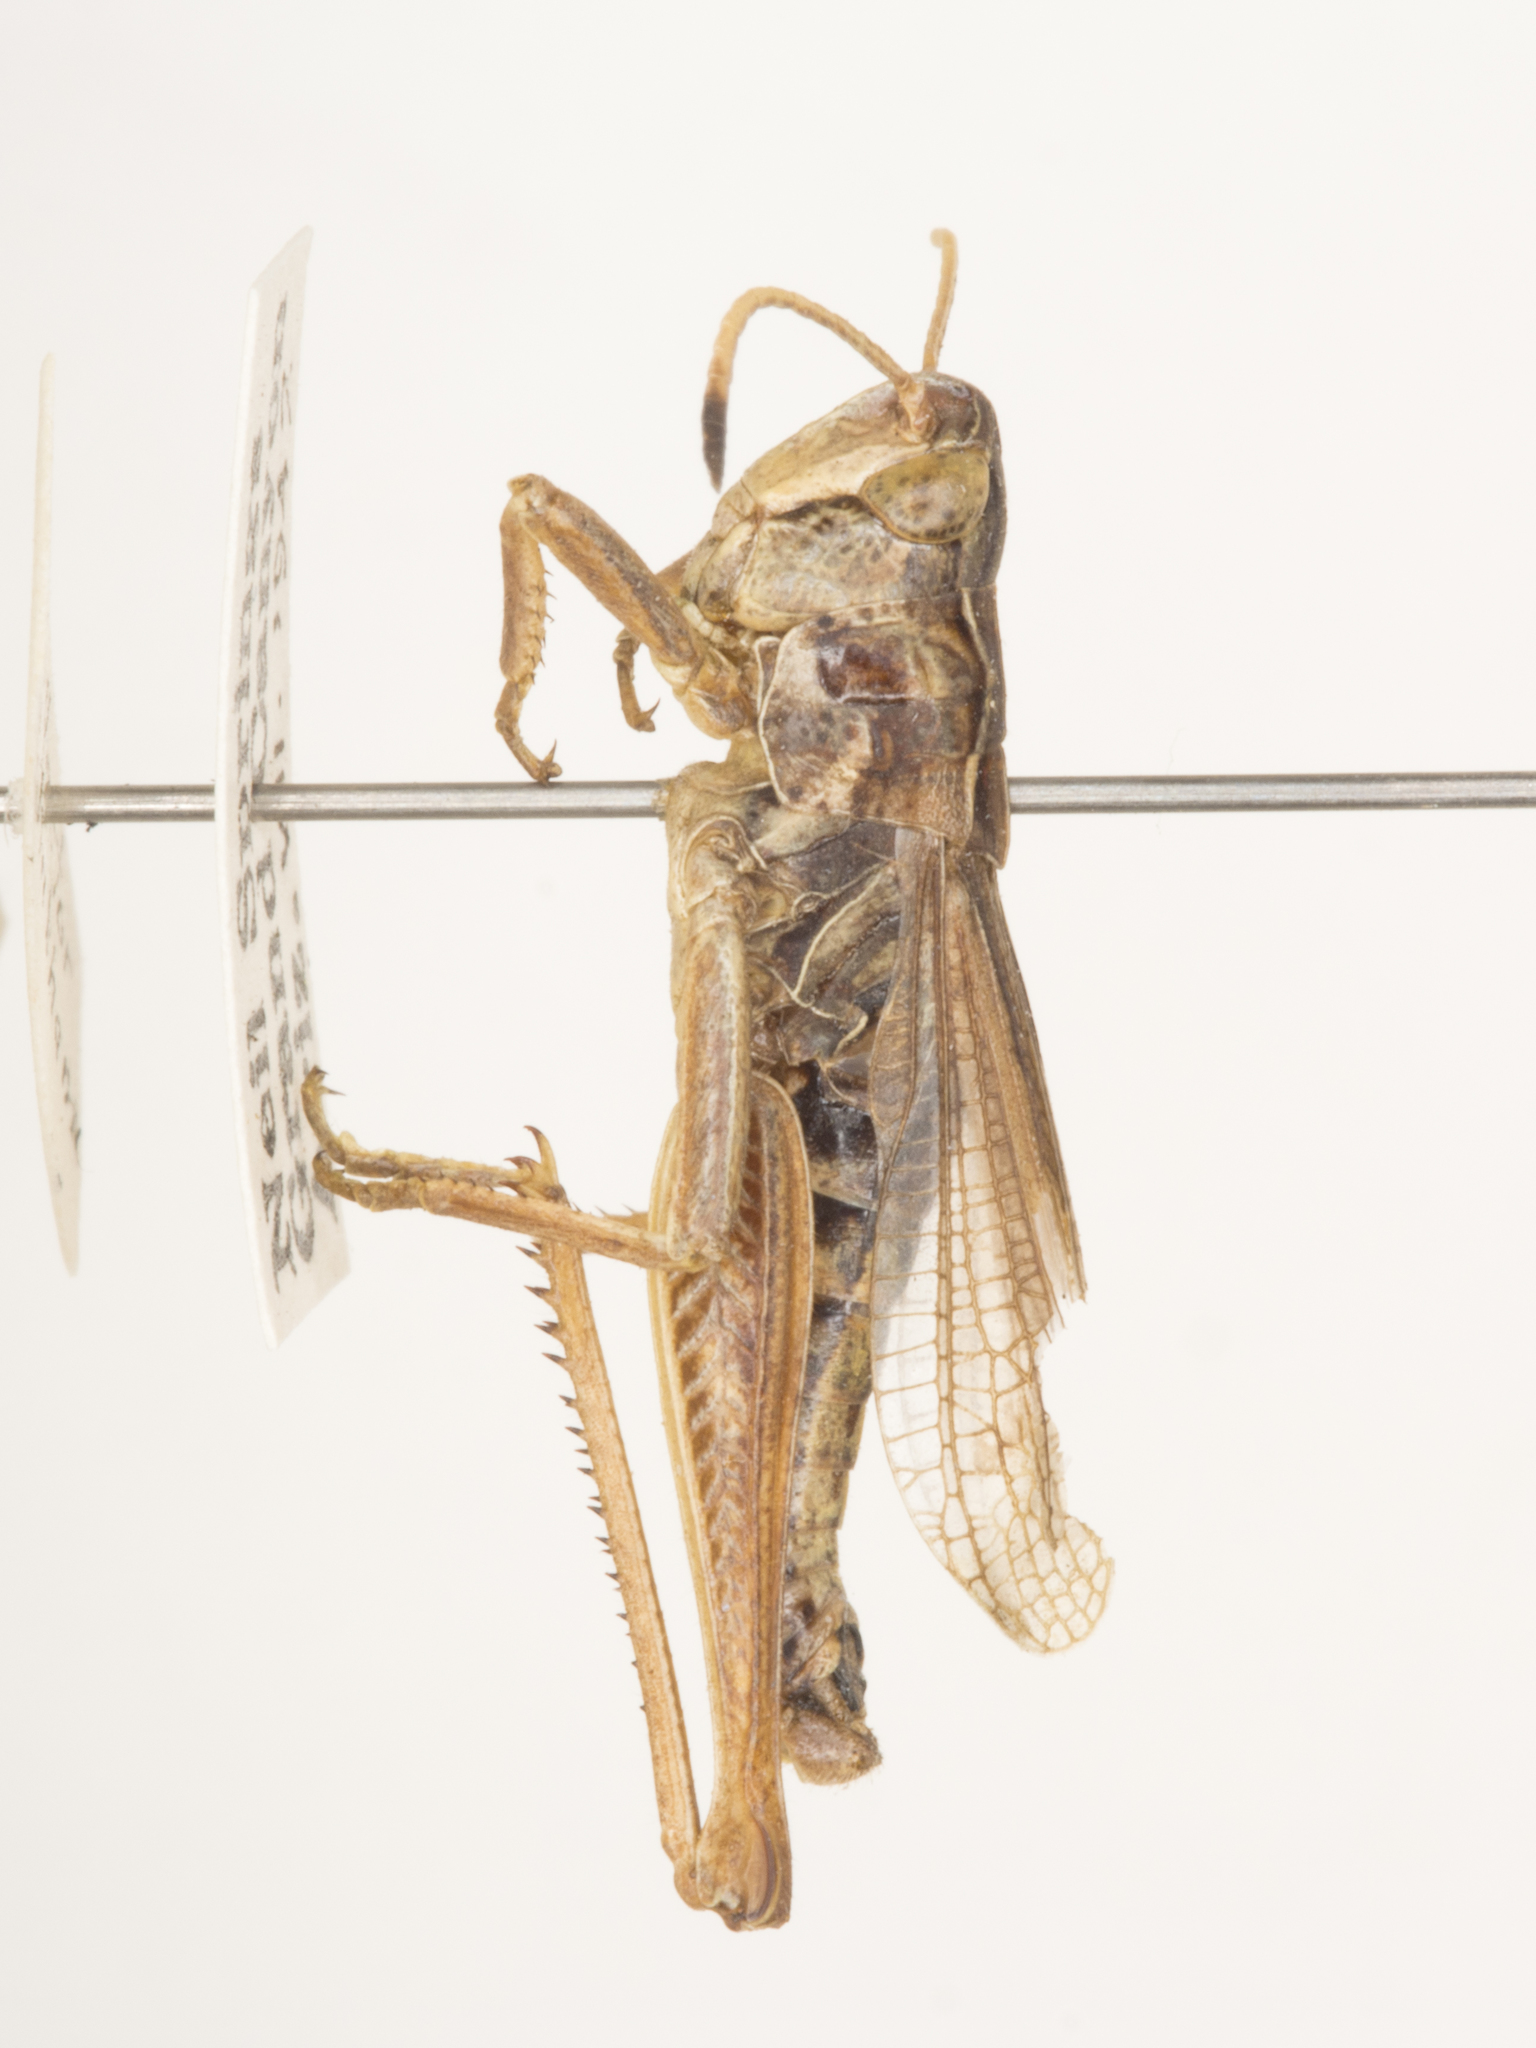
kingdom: Animalia
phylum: Arthropoda
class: Insecta
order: Orthoptera
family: Acrididae
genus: Aeropedellus
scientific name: Aeropedellus clavatus
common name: Clubhorned grasshopper
